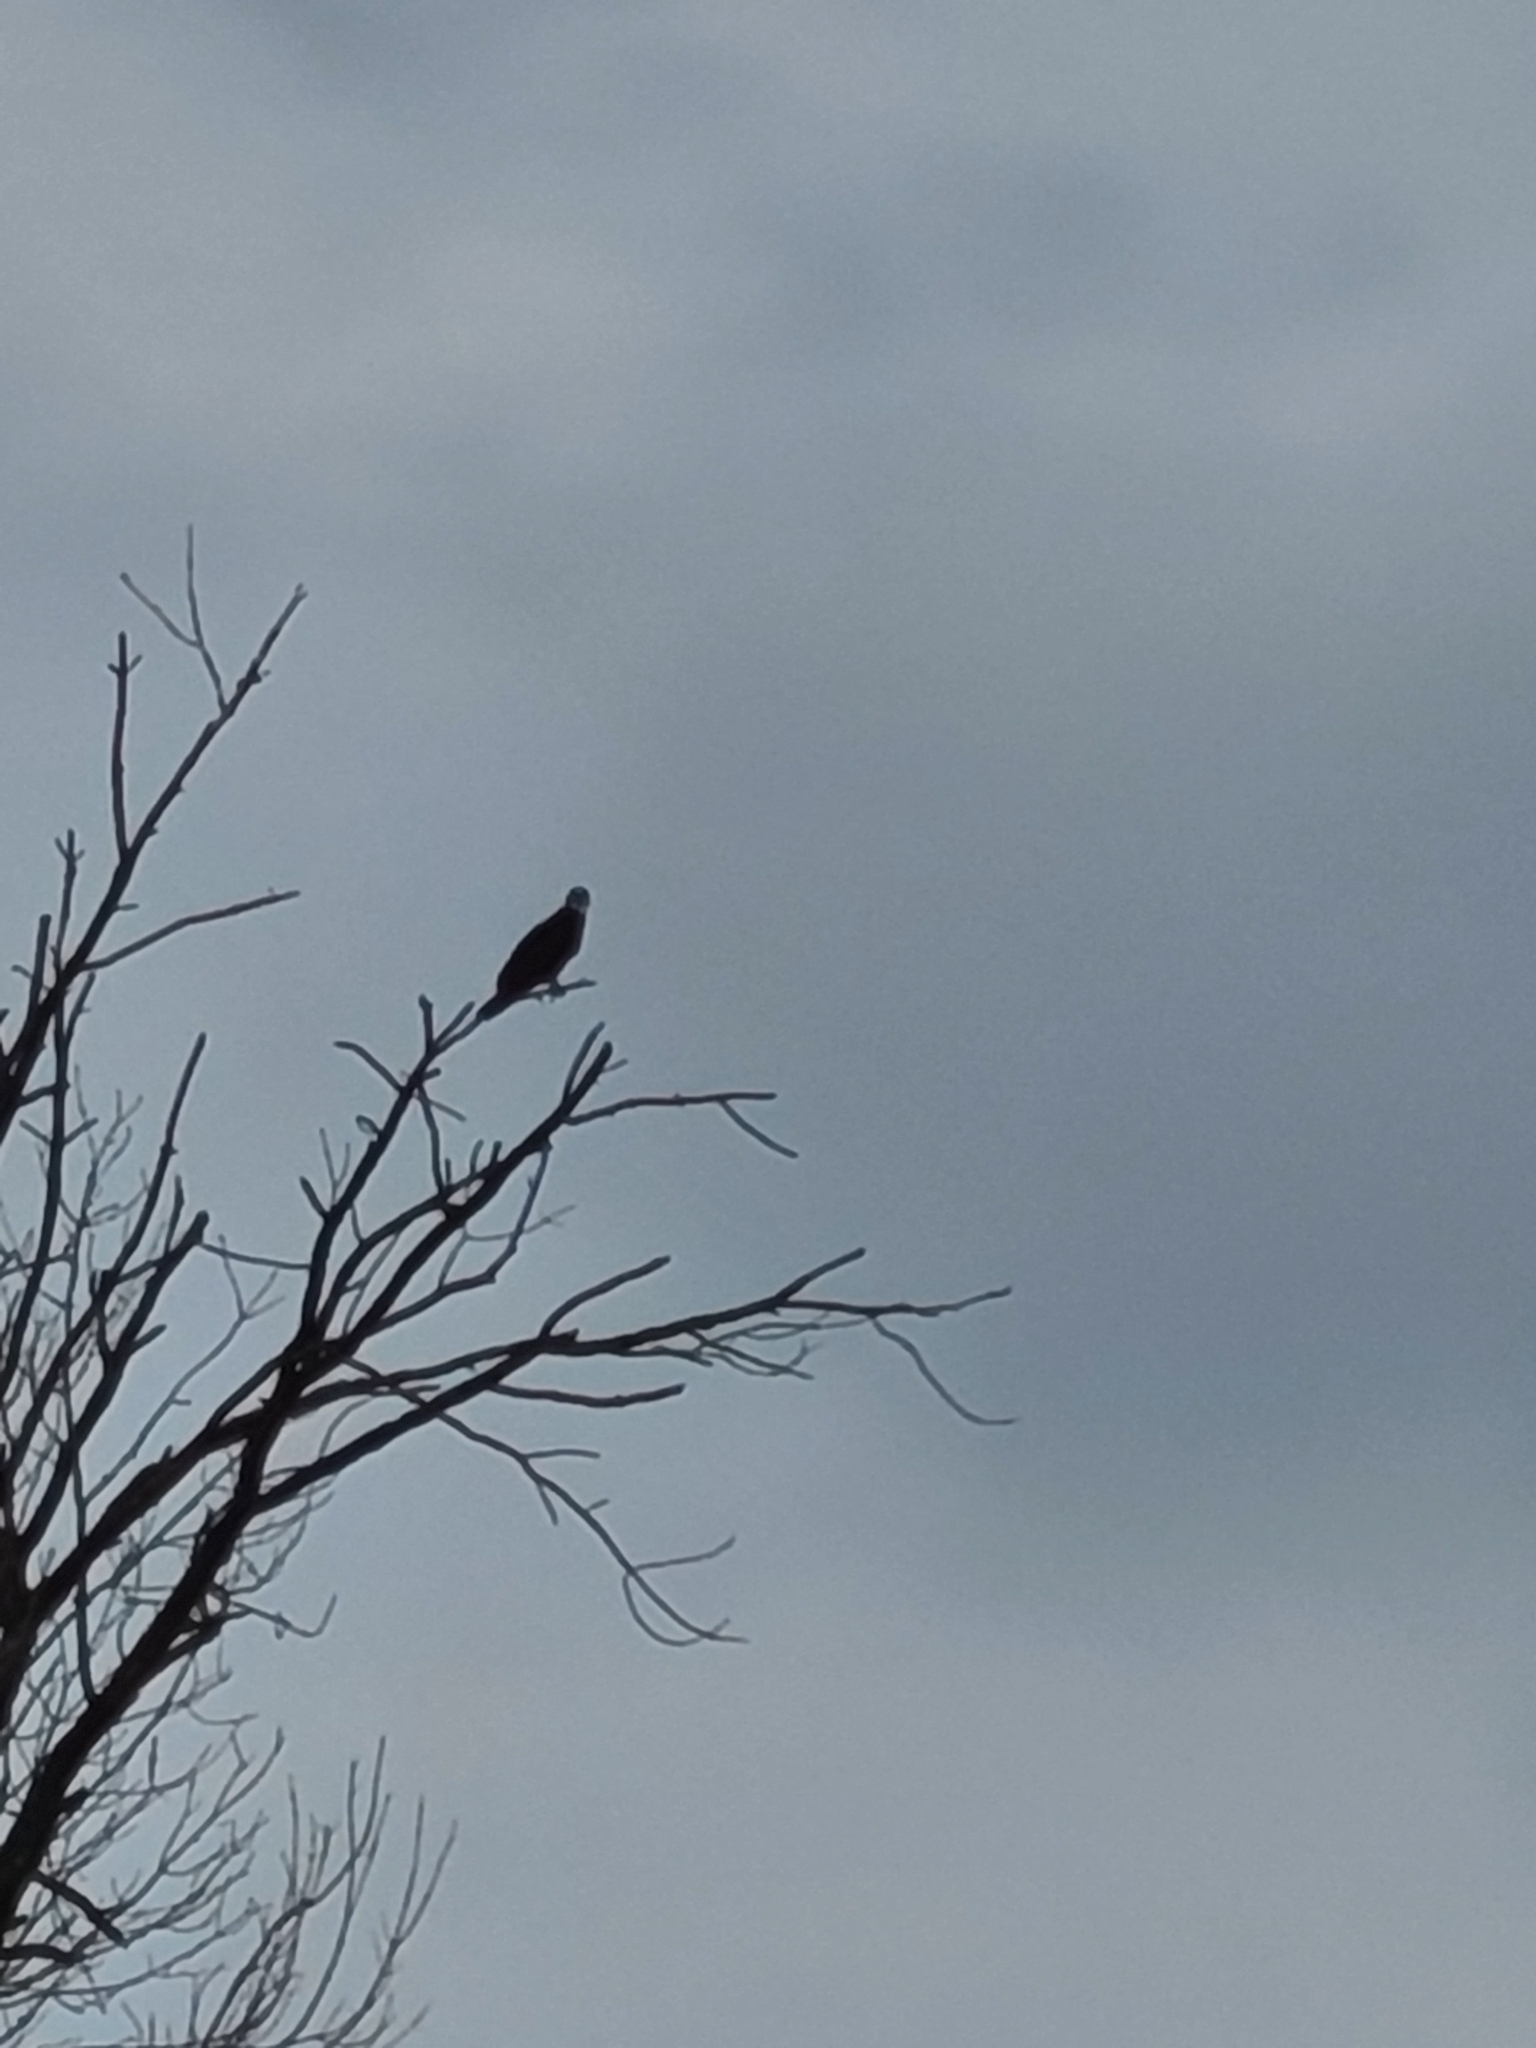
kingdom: Animalia
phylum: Chordata
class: Aves
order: Accipitriformes
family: Pandionidae
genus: Pandion
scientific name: Pandion haliaetus
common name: Osprey
